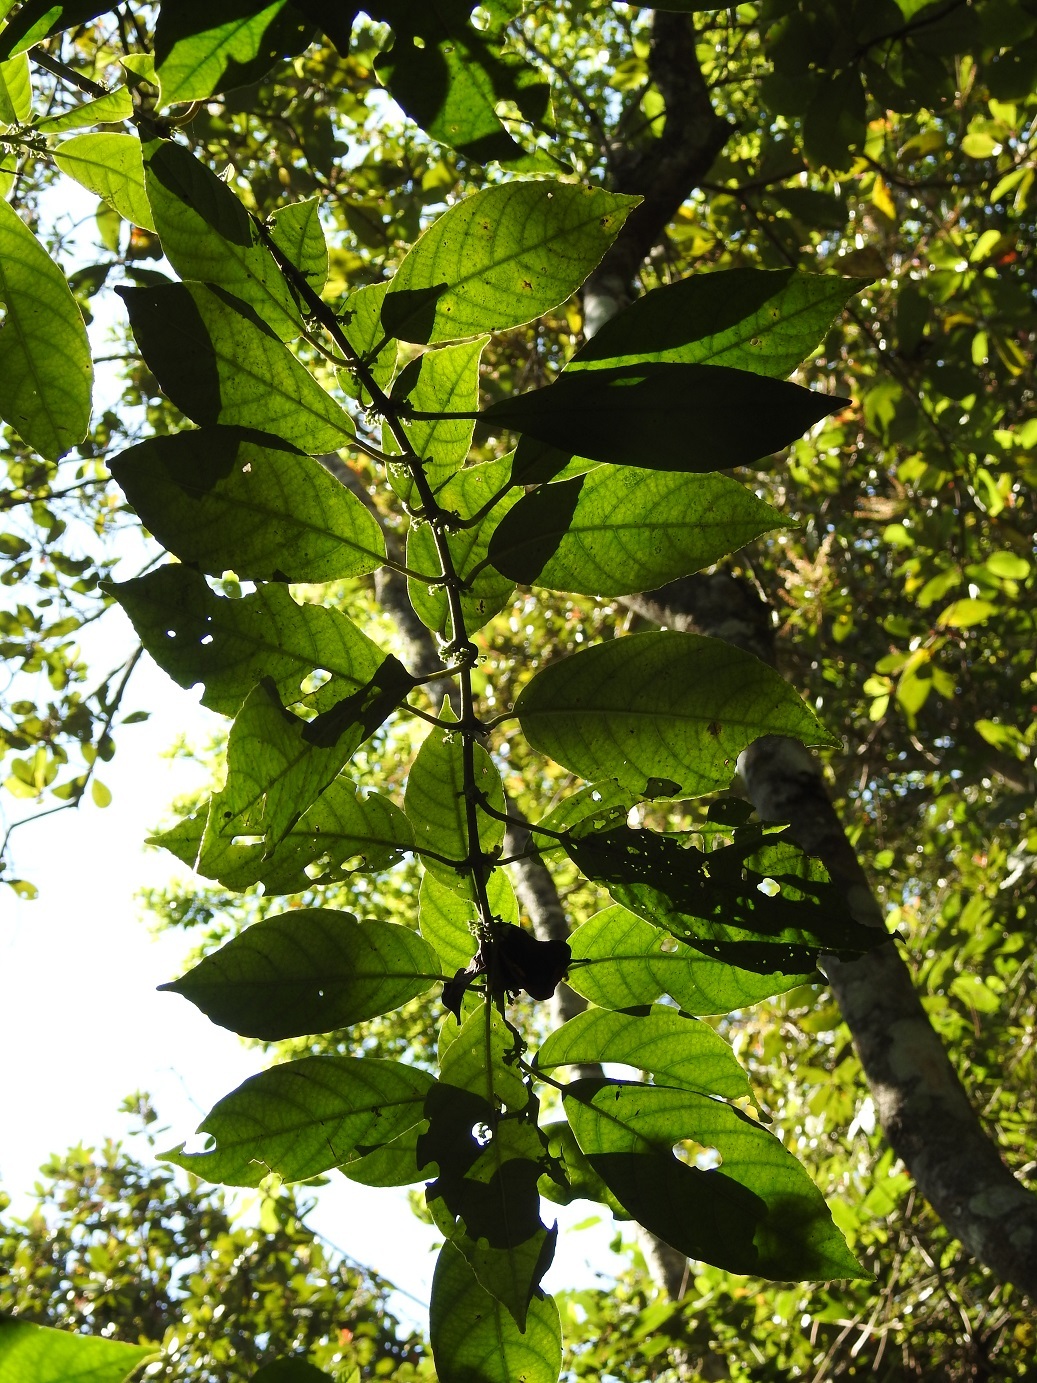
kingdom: Plantae
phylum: Tracheophyta
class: Magnoliopsida
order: Laurales
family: Siparunaceae
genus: Siparuna
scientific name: Siparuna thecaphora
